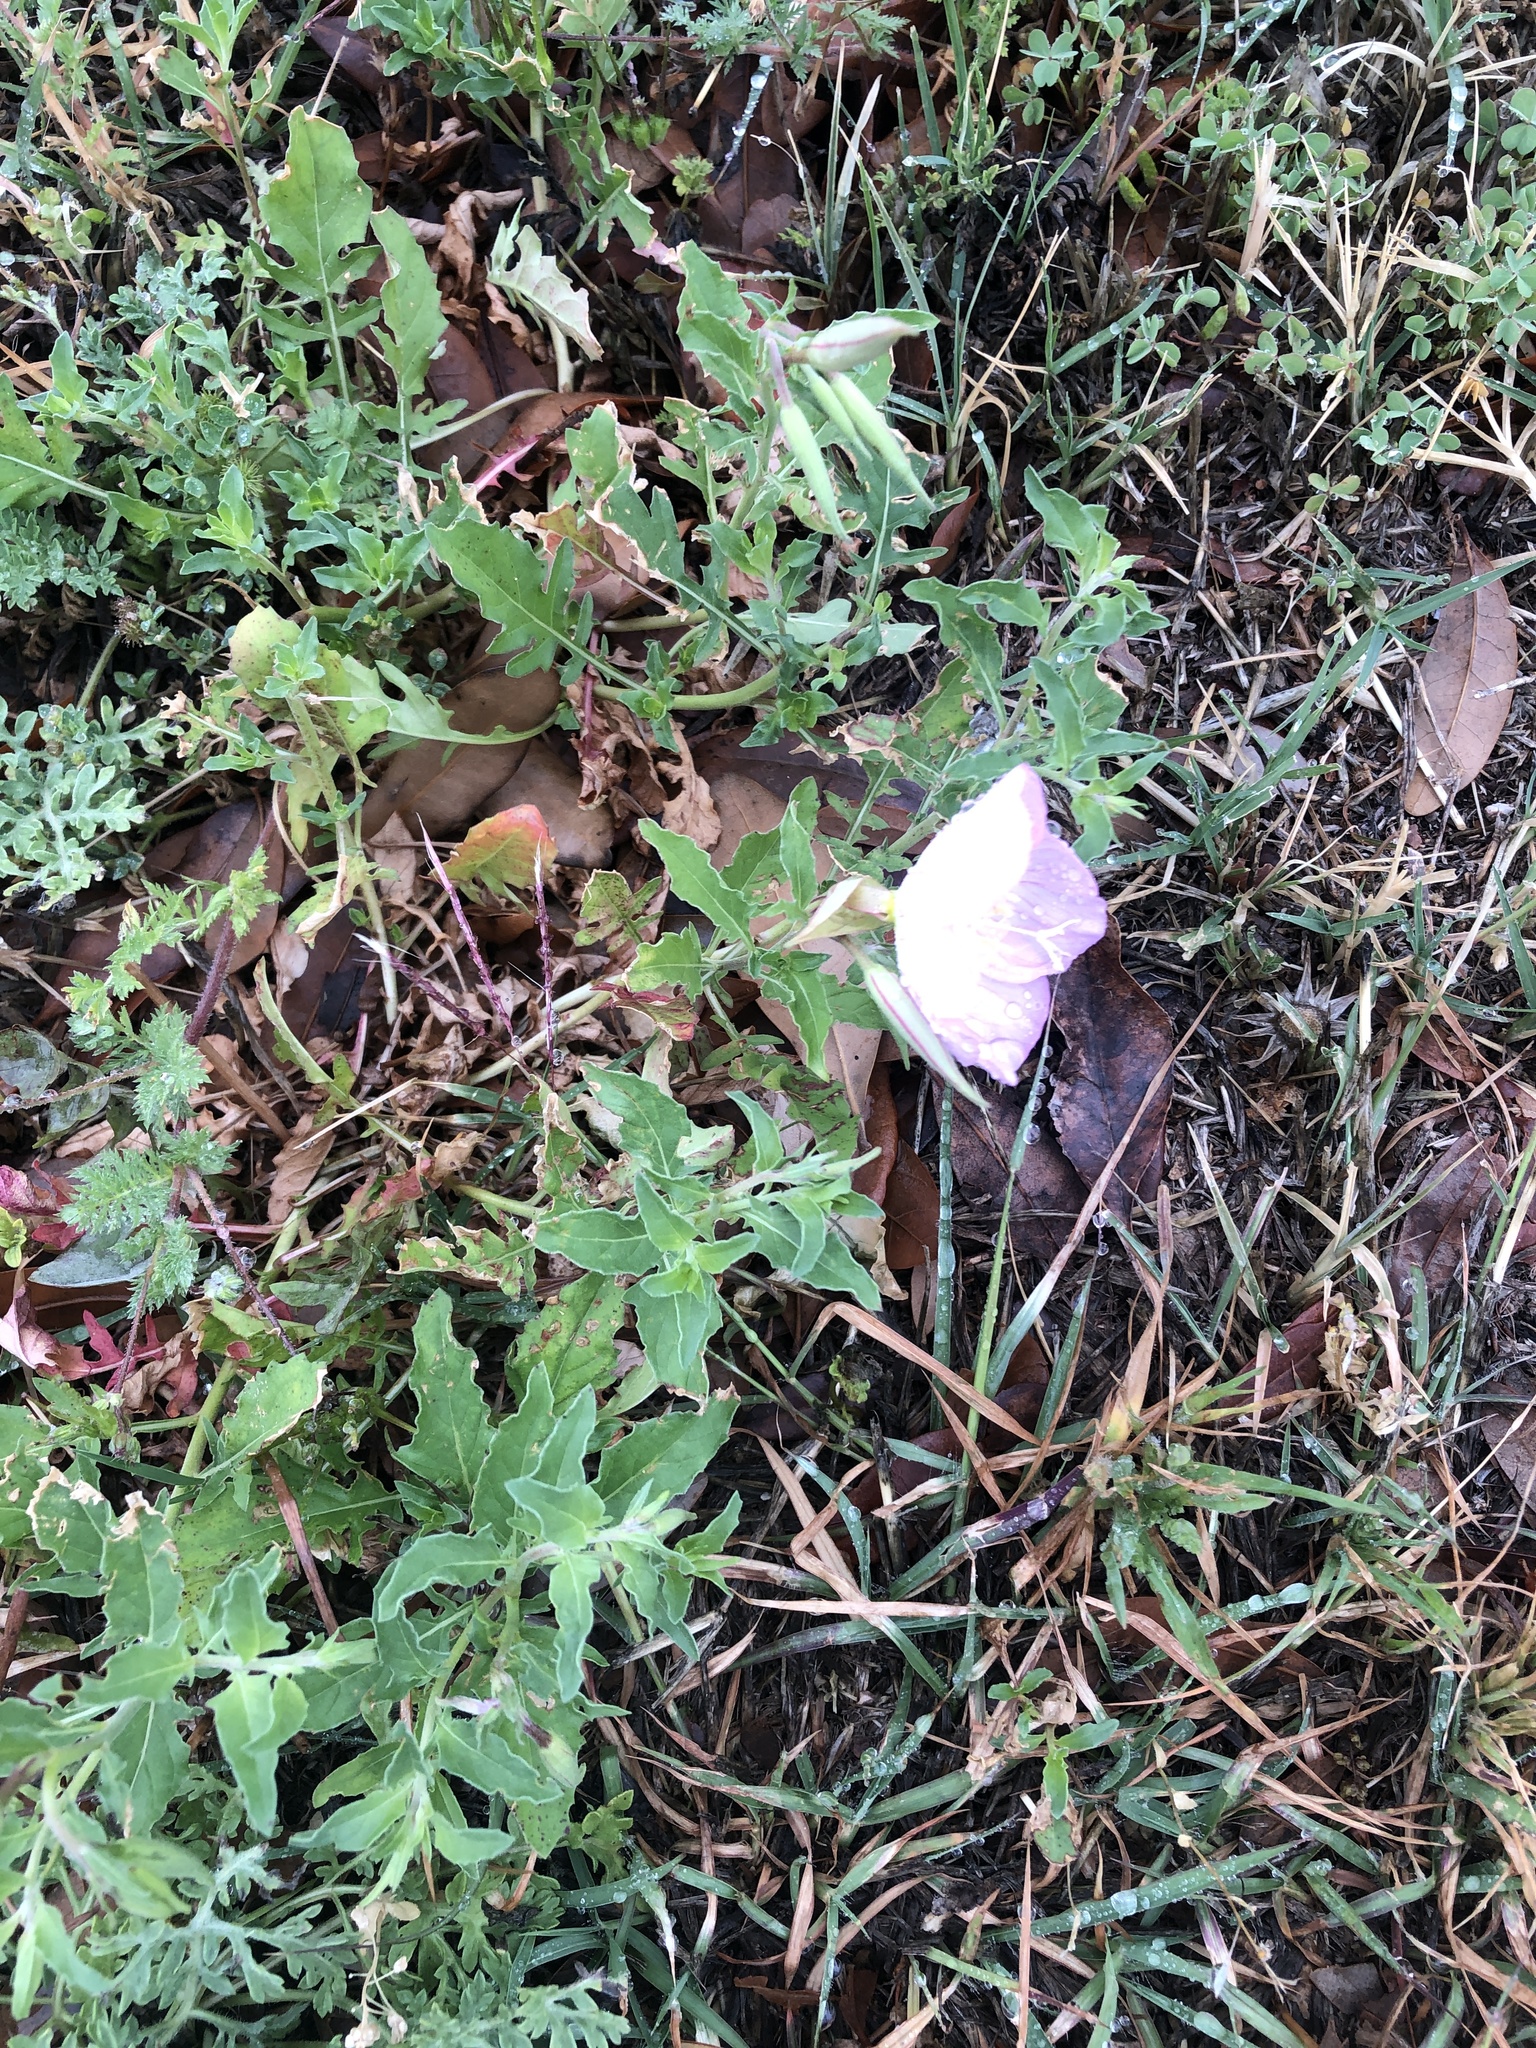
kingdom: Plantae
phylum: Tracheophyta
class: Magnoliopsida
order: Myrtales
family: Onagraceae
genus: Oenothera
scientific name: Oenothera speciosa
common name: White evening-primrose
